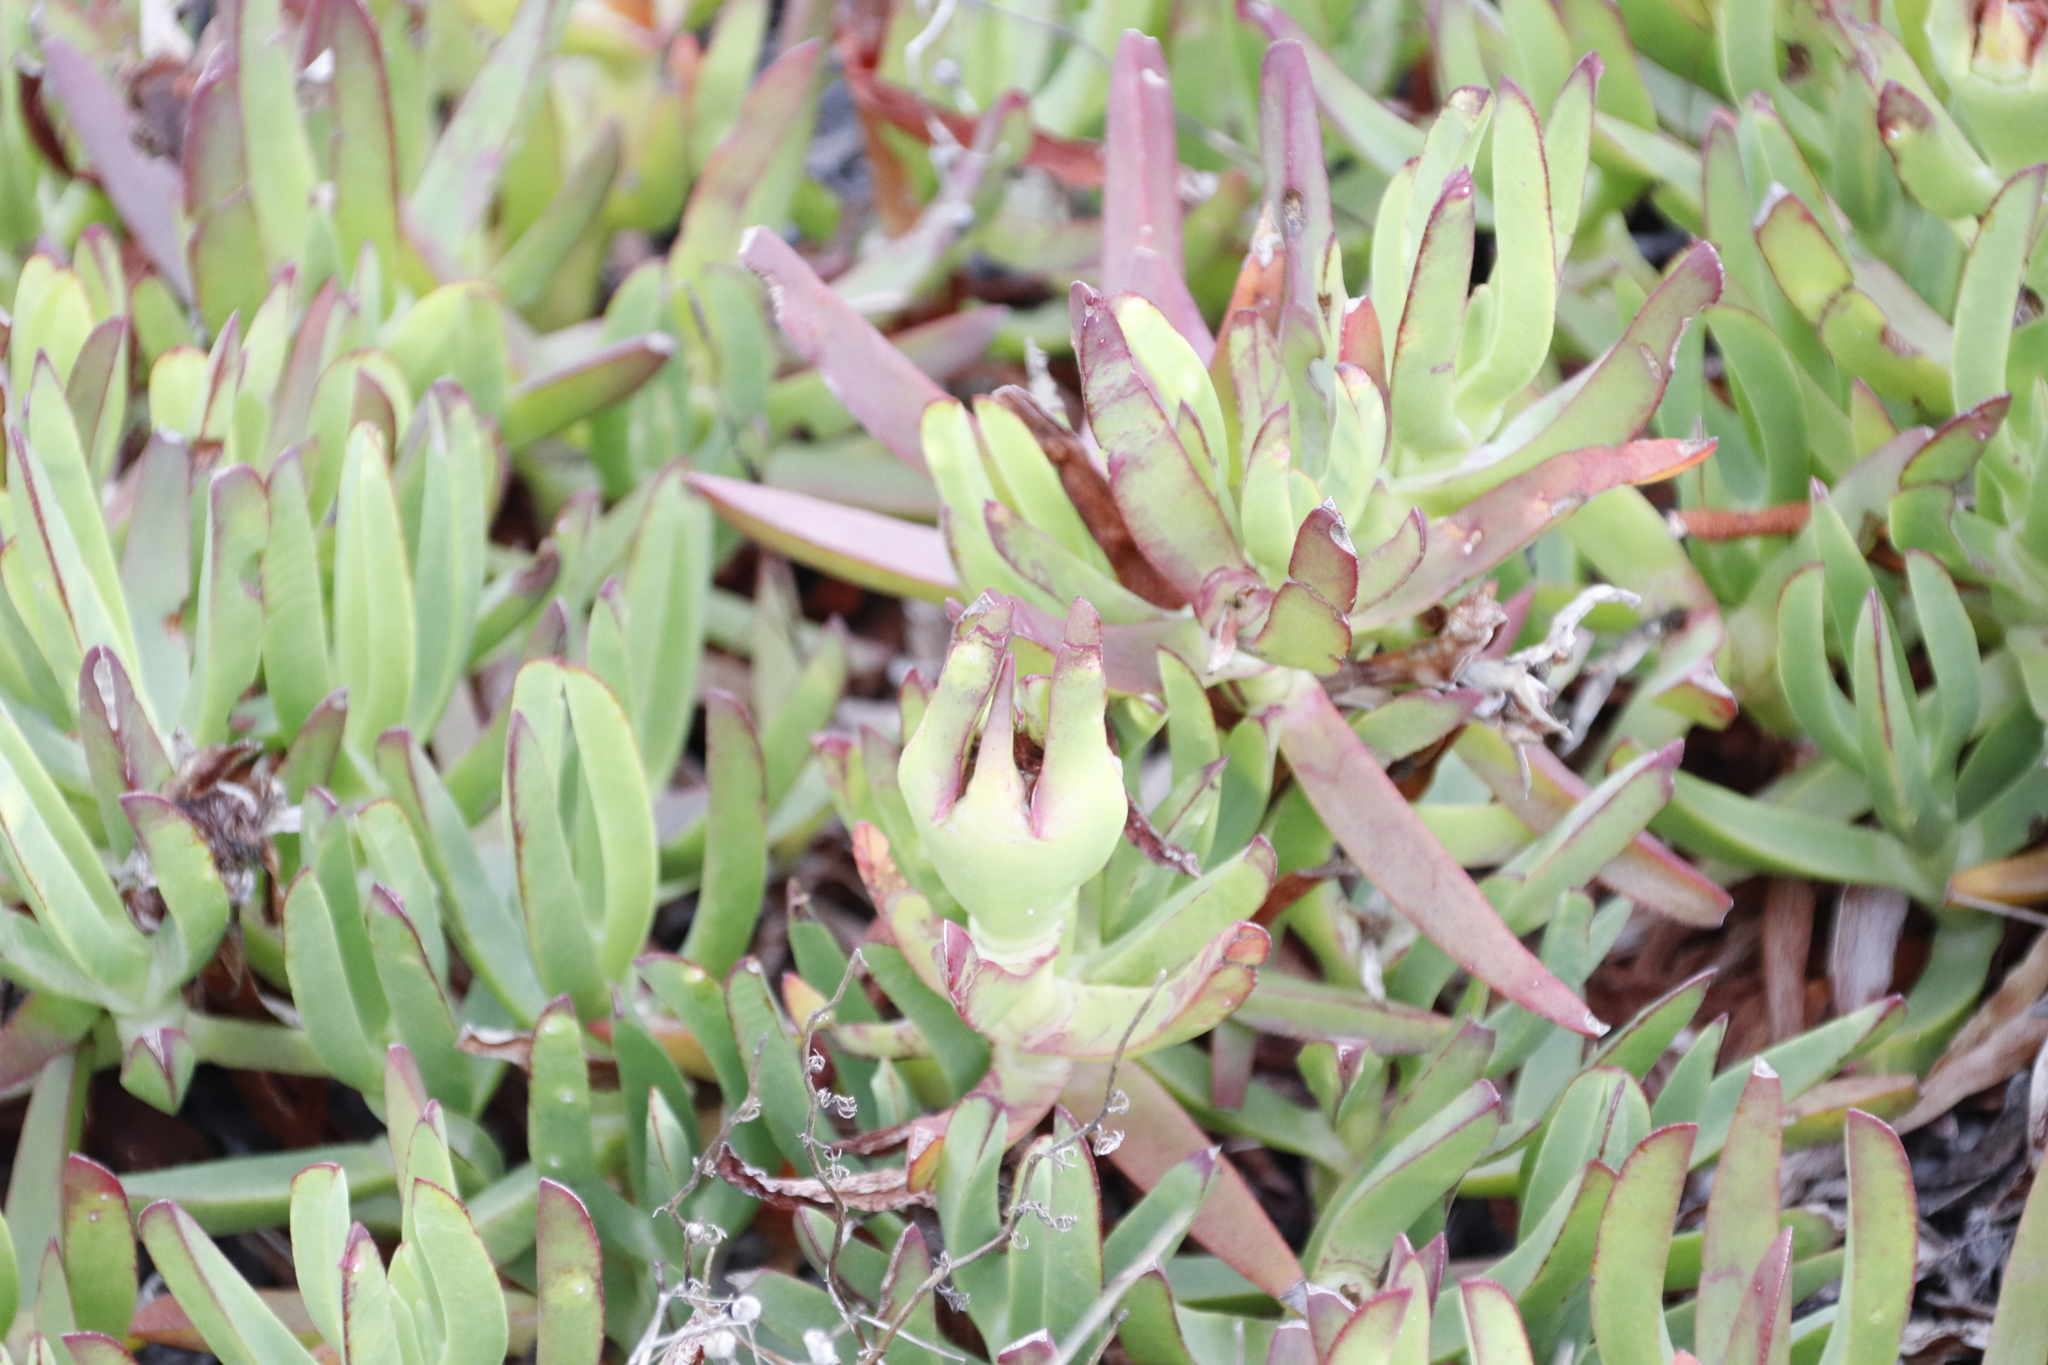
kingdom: Plantae
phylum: Tracheophyta
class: Magnoliopsida
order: Caryophyllales
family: Aizoaceae
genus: Carpobrotus
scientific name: Carpobrotus edulis
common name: Hottentot-fig
